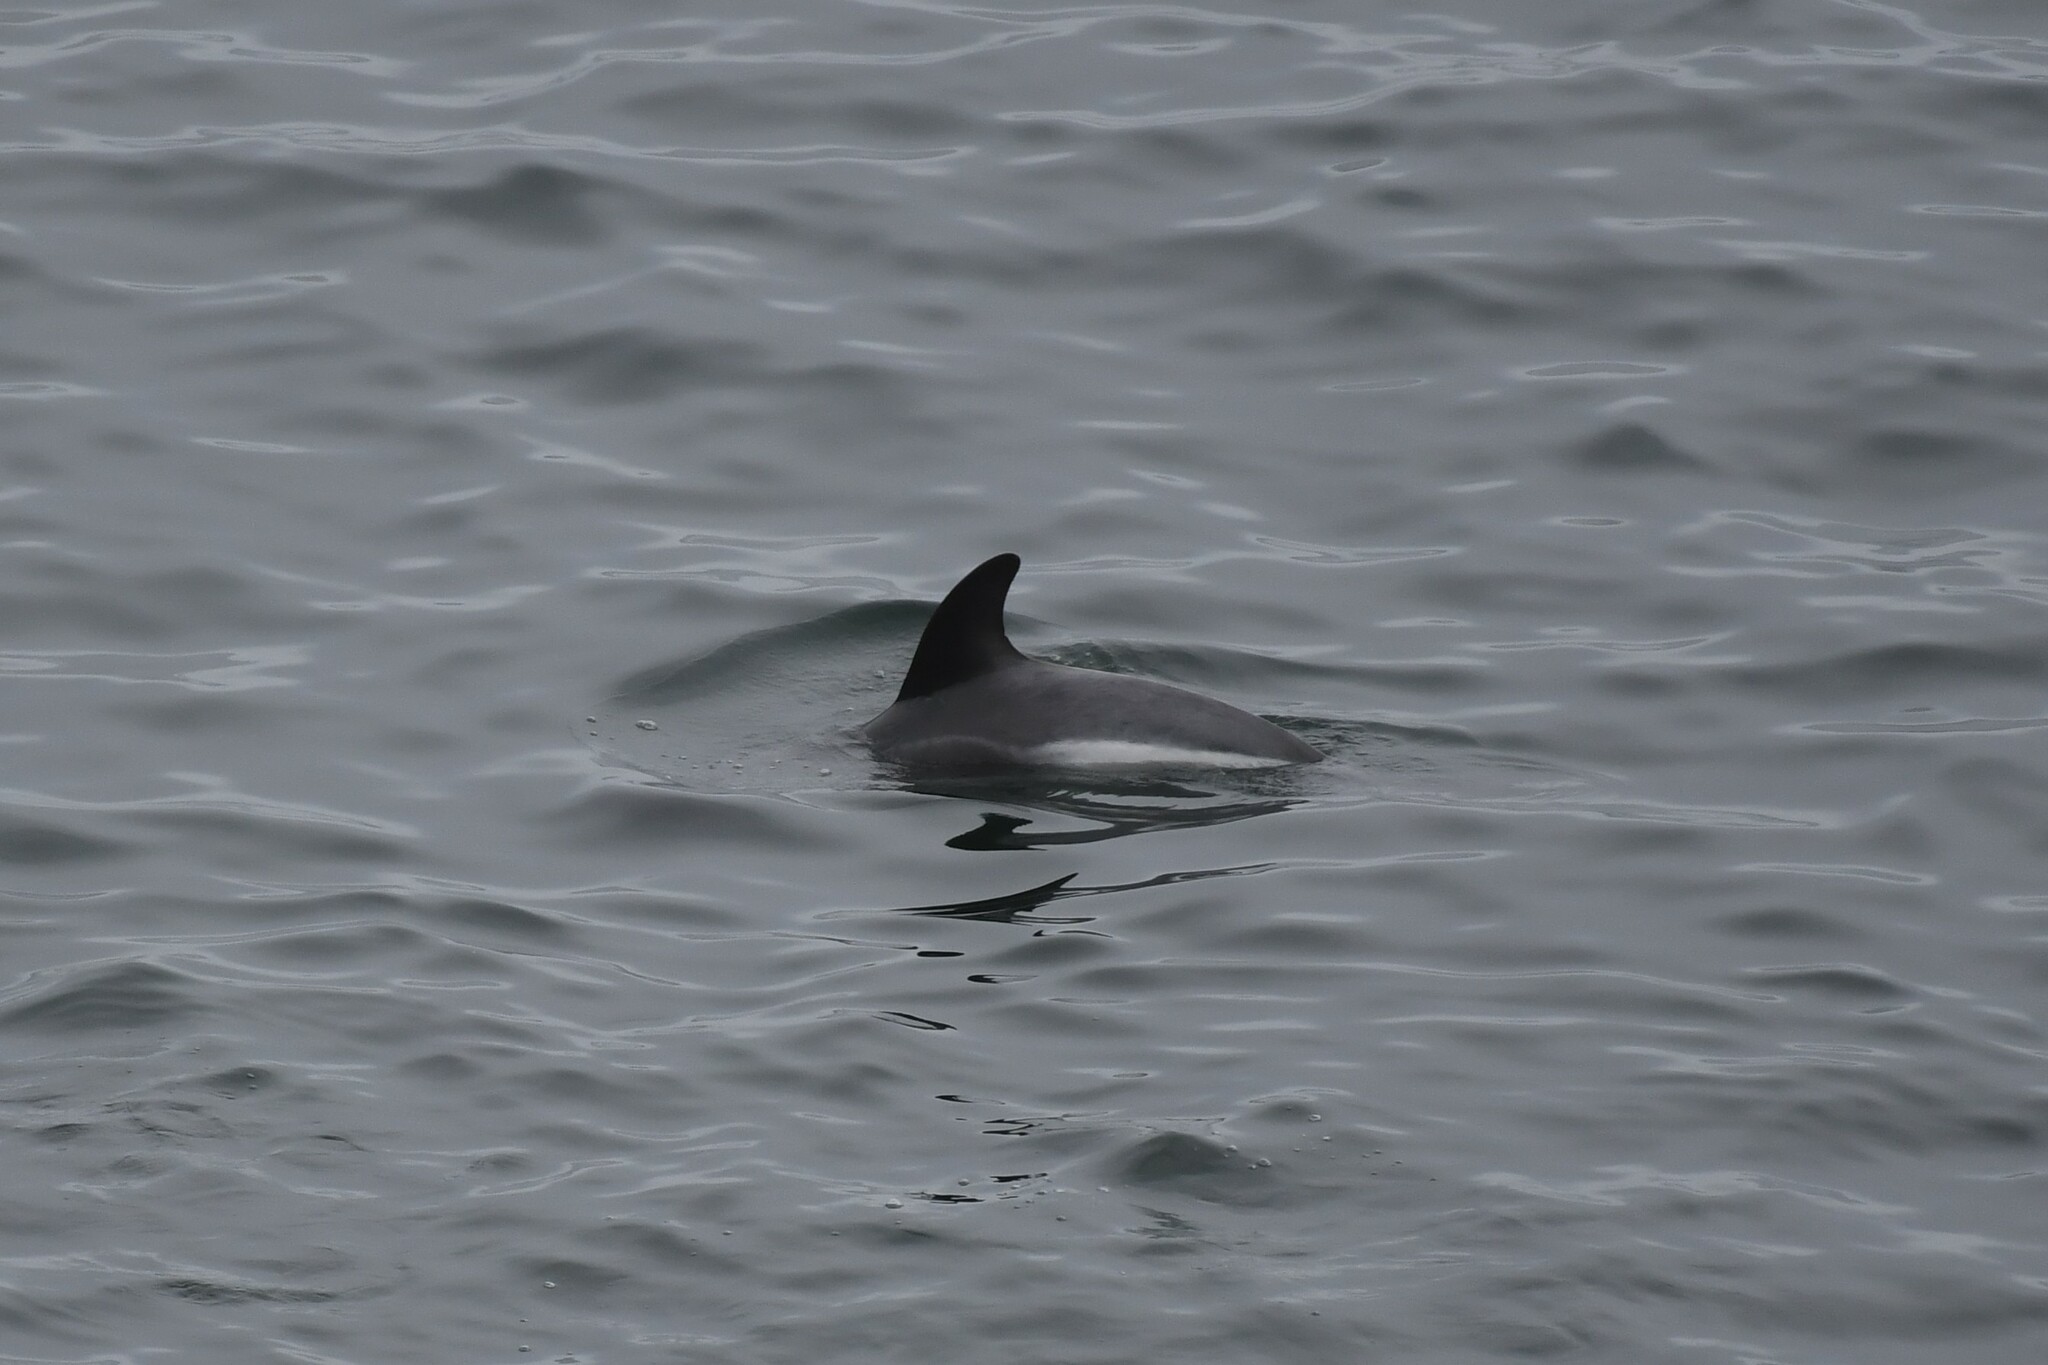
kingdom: Animalia
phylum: Chordata
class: Mammalia
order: Cetacea
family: Delphinidae
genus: Lagenorhynchus
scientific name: Lagenorhynchus australis
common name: Peale's dolphin
